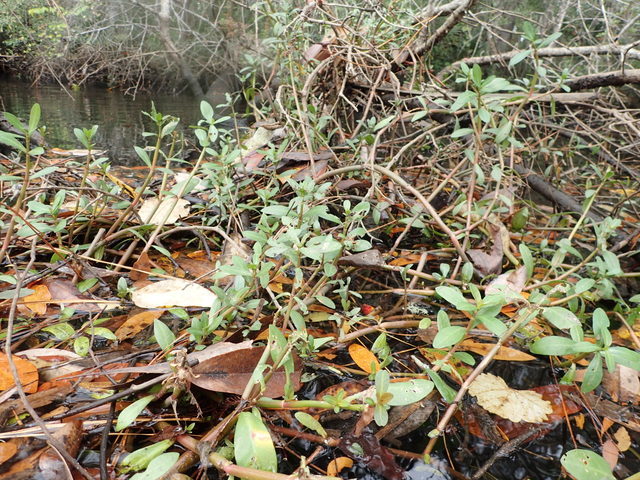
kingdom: Plantae
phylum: Tracheophyta
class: Magnoliopsida
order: Caryophyllales
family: Amaranthaceae
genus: Alternanthera
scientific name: Alternanthera philoxeroides
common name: Alligatorweed
